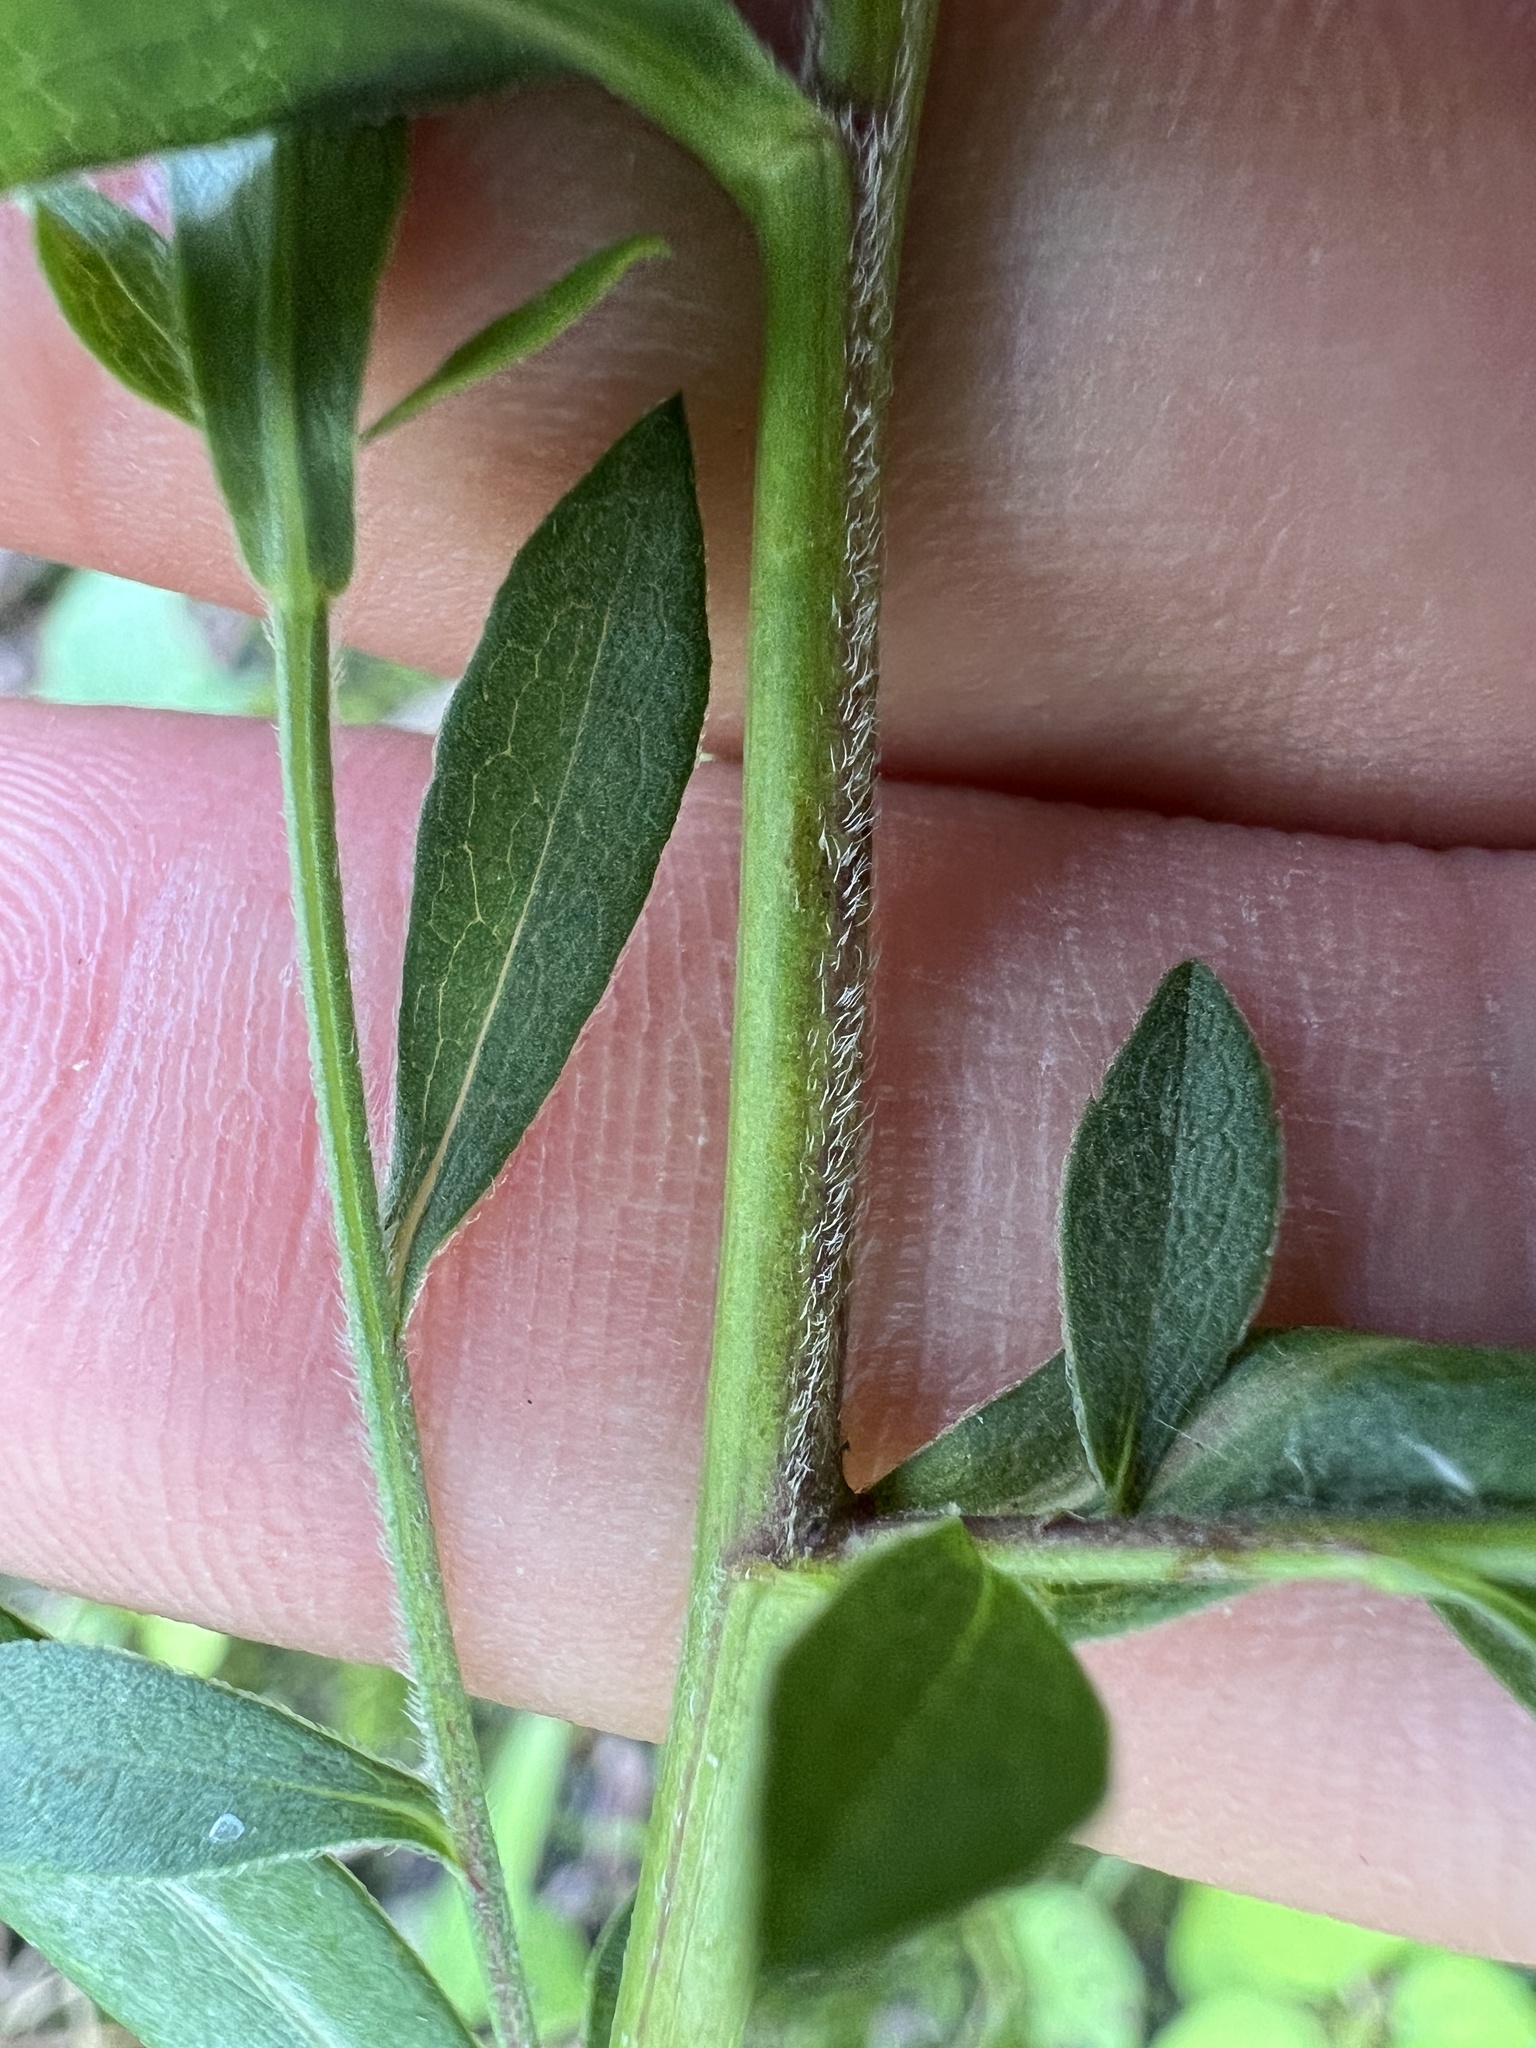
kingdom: Plantae
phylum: Tracheophyta
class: Magnoliopsida
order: Asterales
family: Asteraceae
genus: Symphyotrichum
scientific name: Symphyotrichum lanceolatum
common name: Panicled aster
